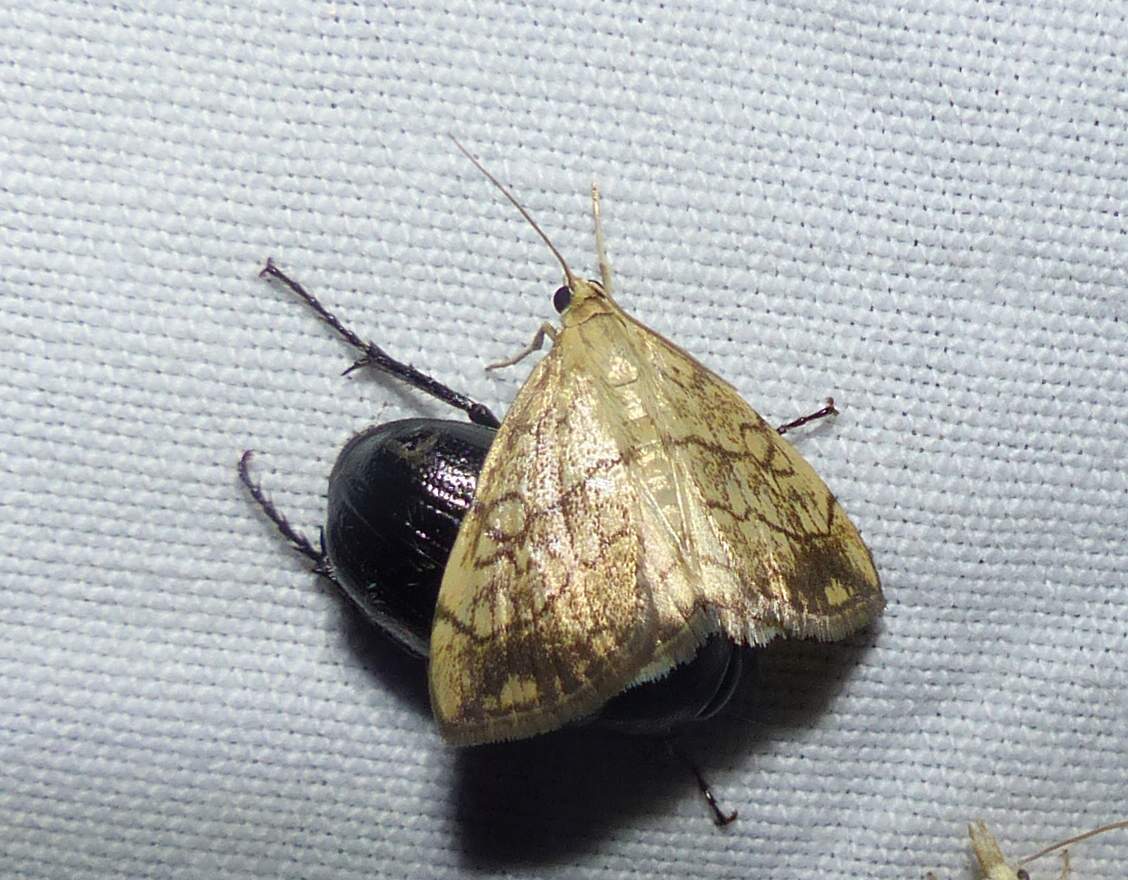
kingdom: Animalia
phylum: Arthropoda
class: Insecta
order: Lepidoptera
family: Crambidae
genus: Evergestis
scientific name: Evergestis pallidata
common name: Chequered pearl
